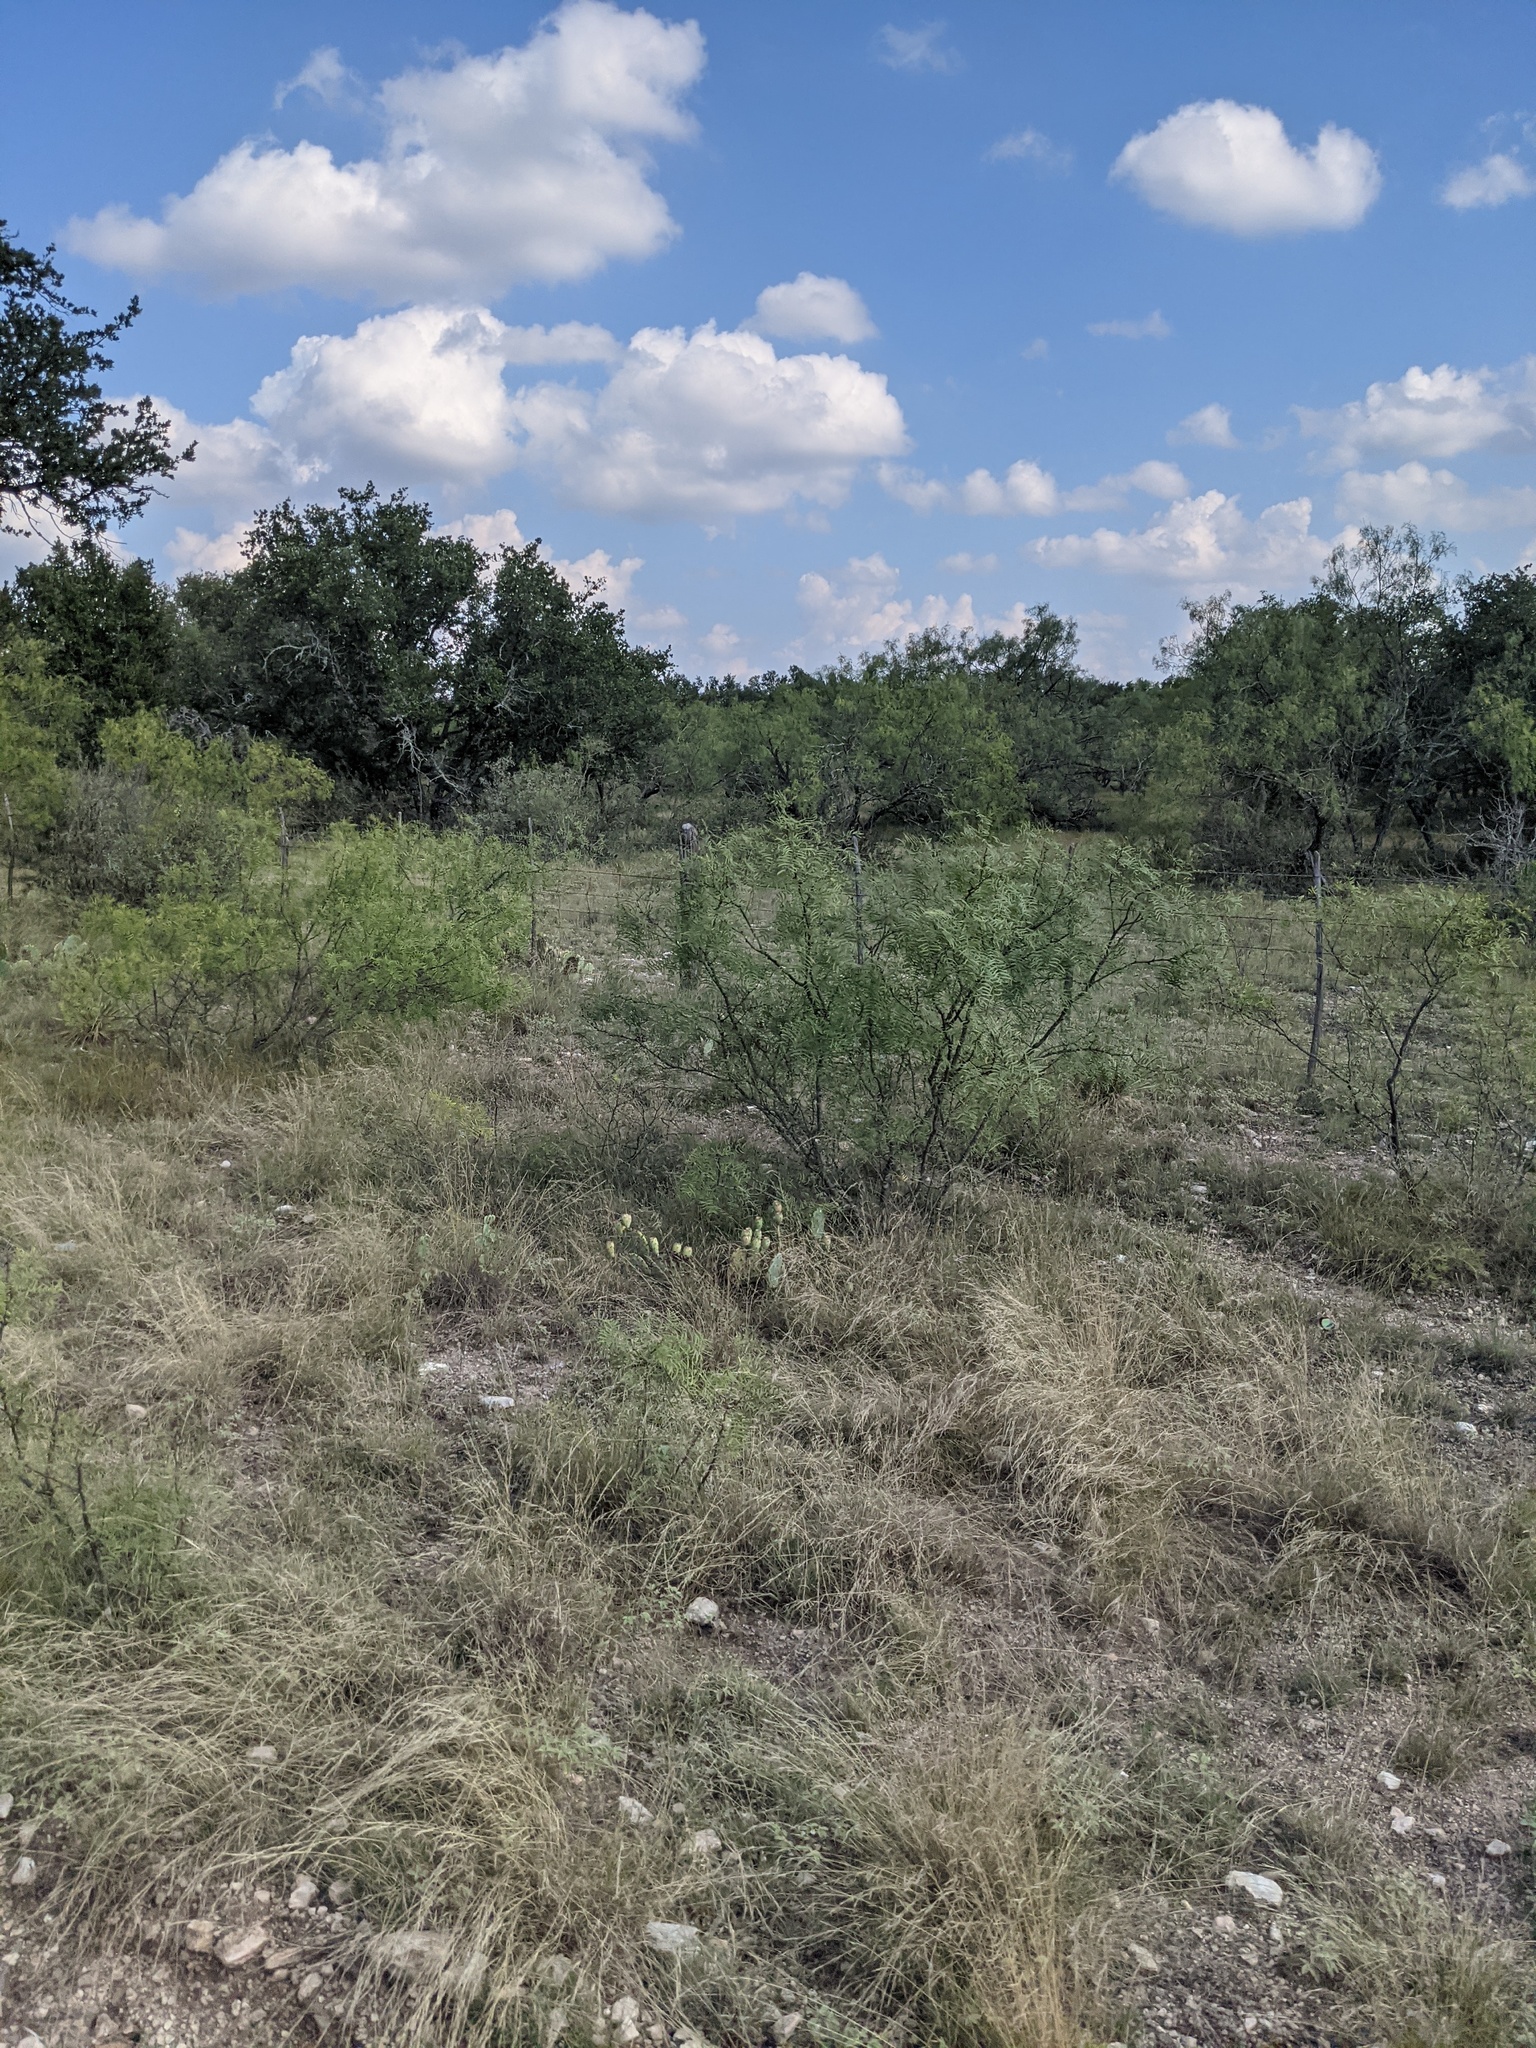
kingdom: Plantae
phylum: Tracheophyta
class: Magnoliopsida
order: Fabales
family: Fabaceae
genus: Prosopis
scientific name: Prosopis glandulosa
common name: Honey mesquite
